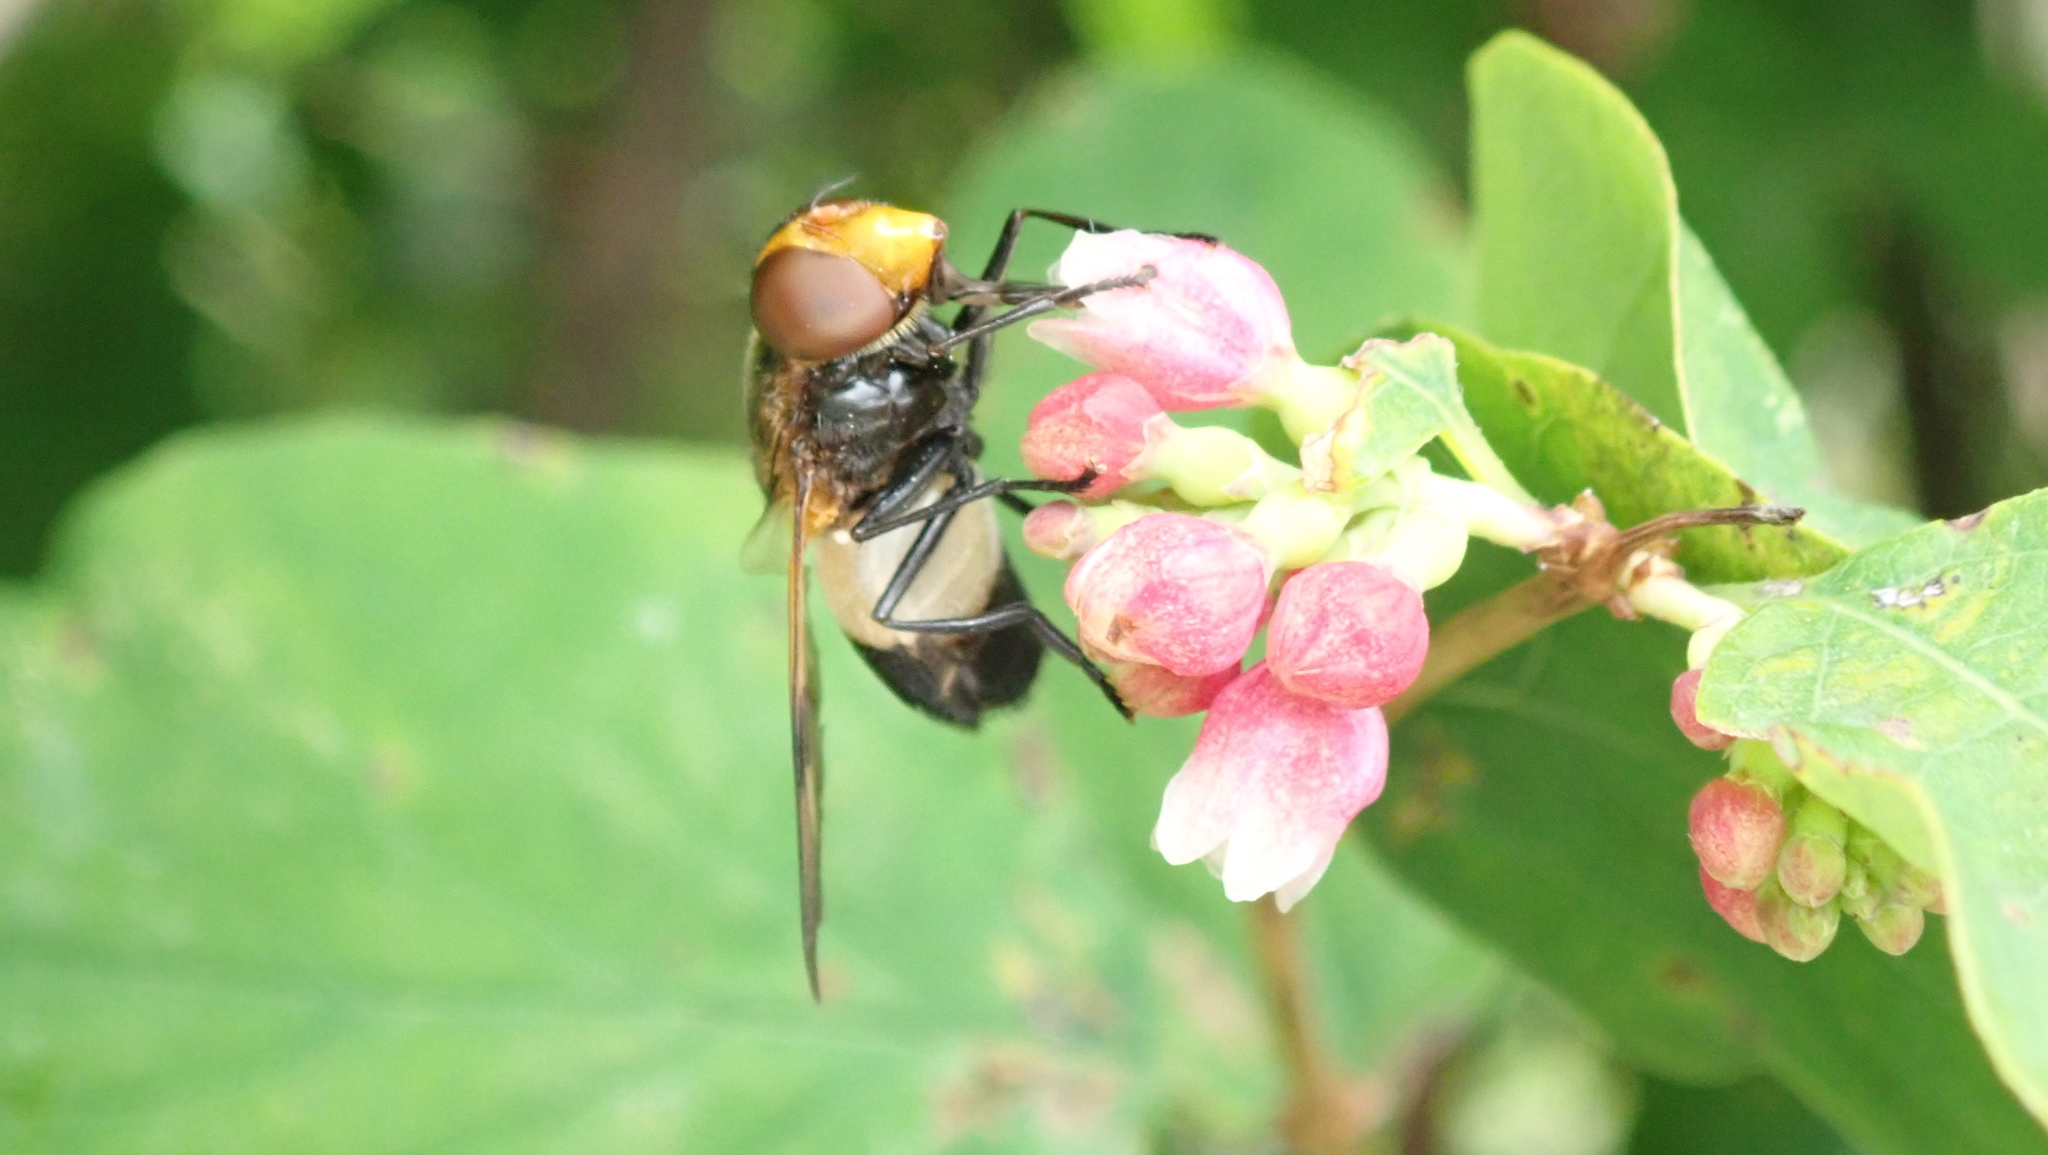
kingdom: Animalia
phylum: Arthropoda
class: Insecta
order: Diptera
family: Syrphidae
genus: Volucella
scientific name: Volucella pellucens
